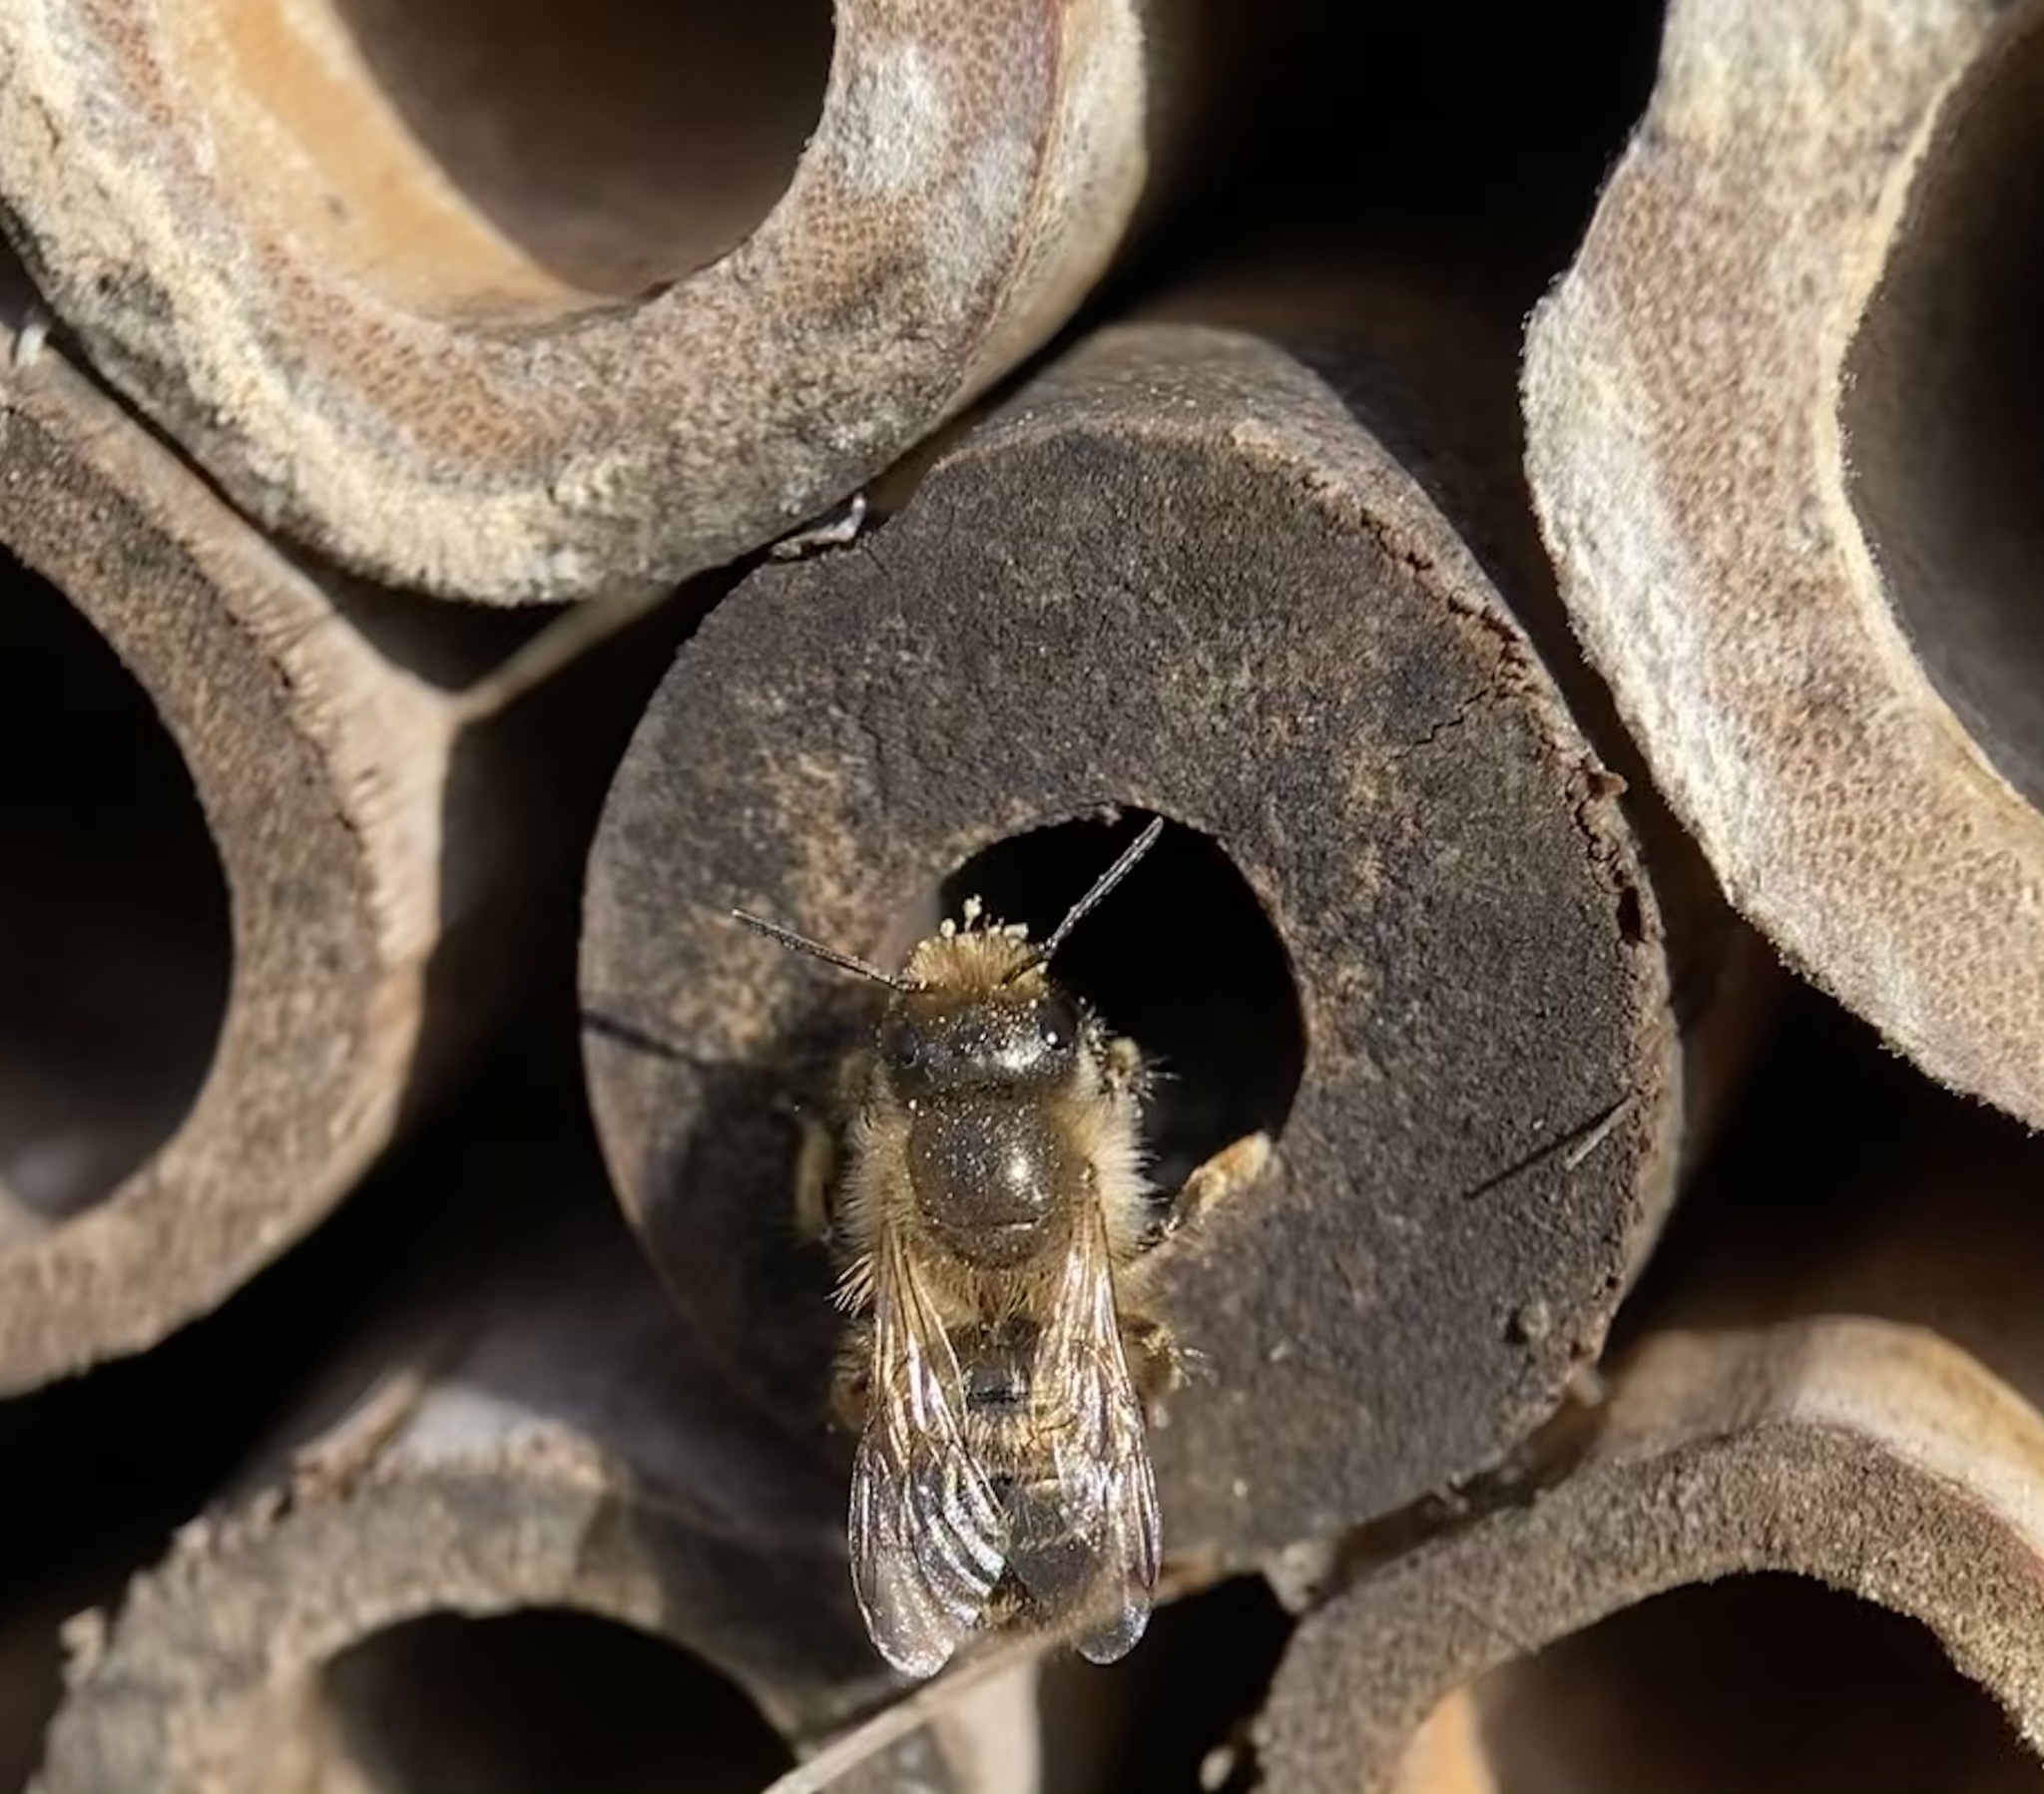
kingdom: Animalia
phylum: Arthropoda
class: Insecta
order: Hymenoptera
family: Megachilidae
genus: Osmia
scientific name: Osmia cornifrons
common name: Horn-faced bee
